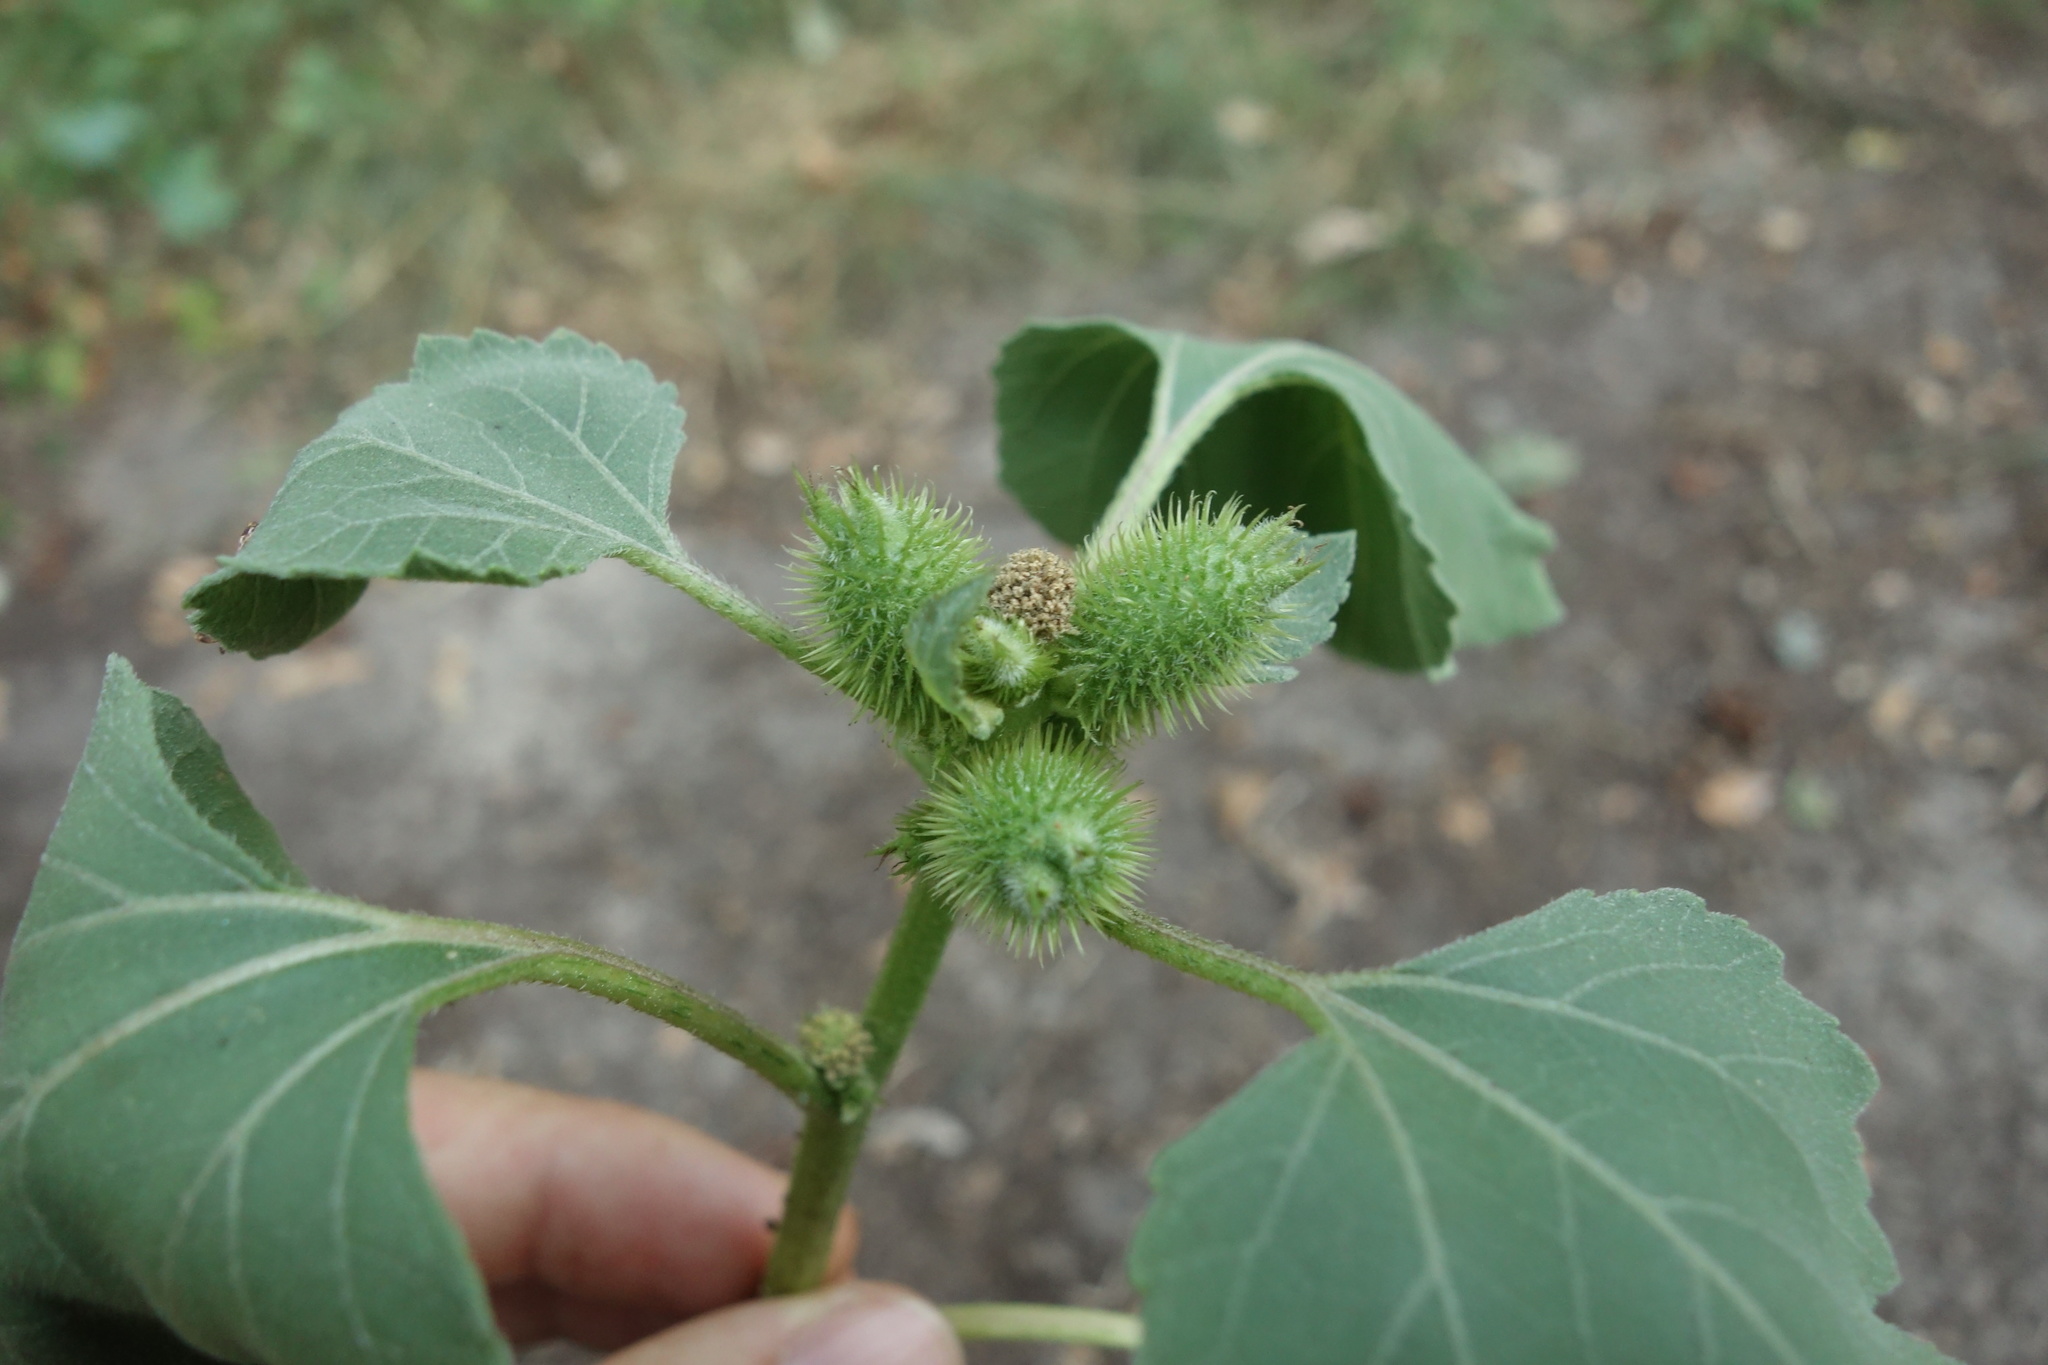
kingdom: Plantae
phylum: Tracheophyta
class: Magnoliopsida
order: Asterales
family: Asteraceae
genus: Xanthium
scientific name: Xanthium orientale
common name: Californian burr
